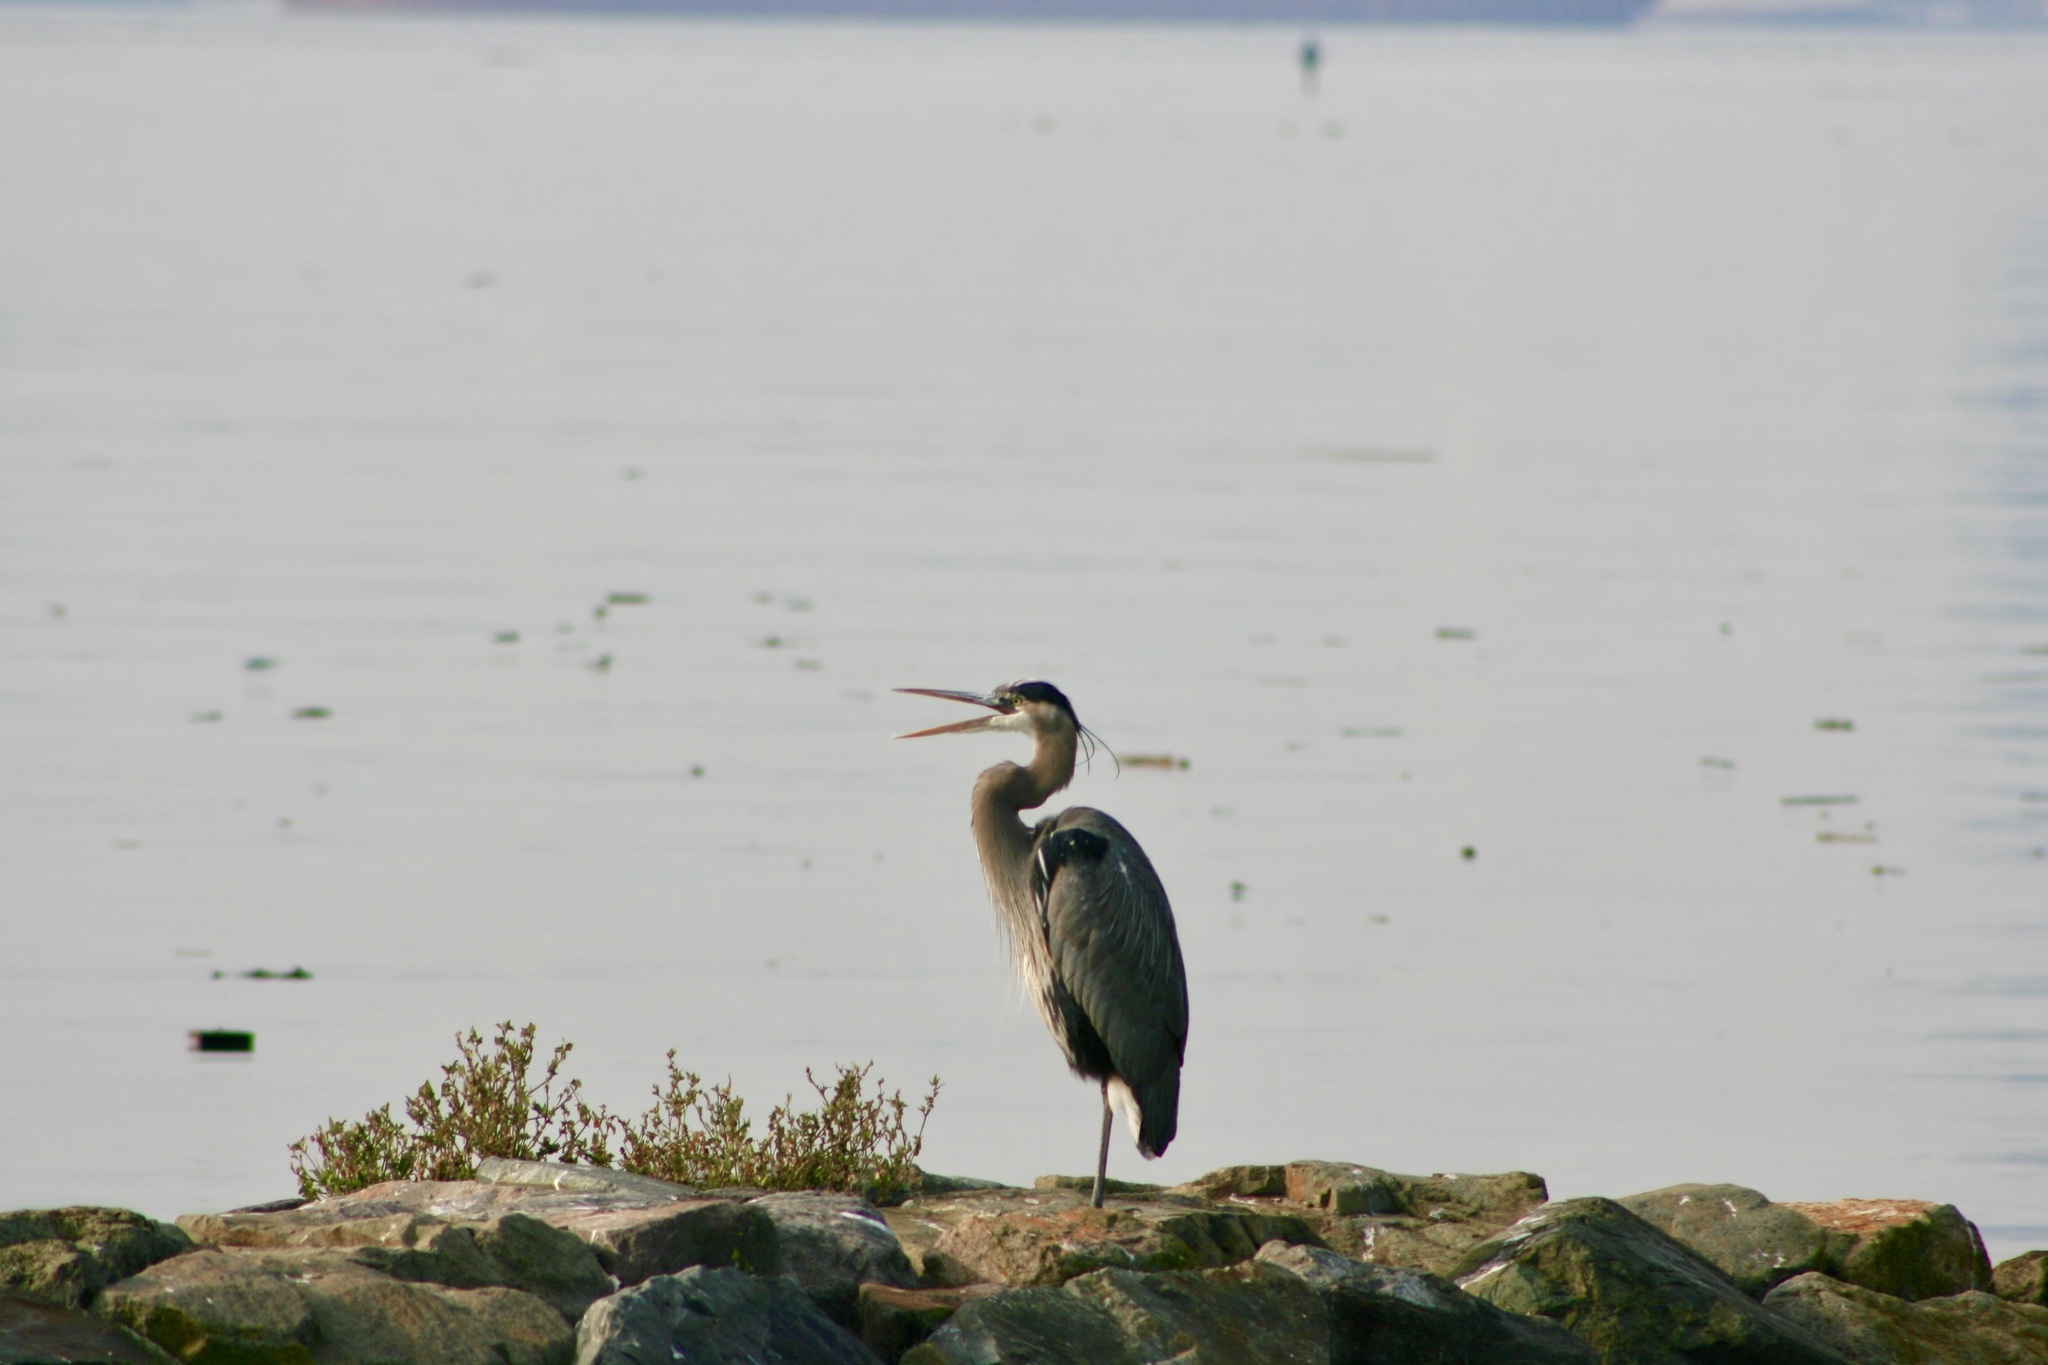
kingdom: Animalia
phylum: Chordata
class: Aves
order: Pelecaniformes
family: Ardeidae
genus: Ardea
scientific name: Ardea herodias
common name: Great blue heron
